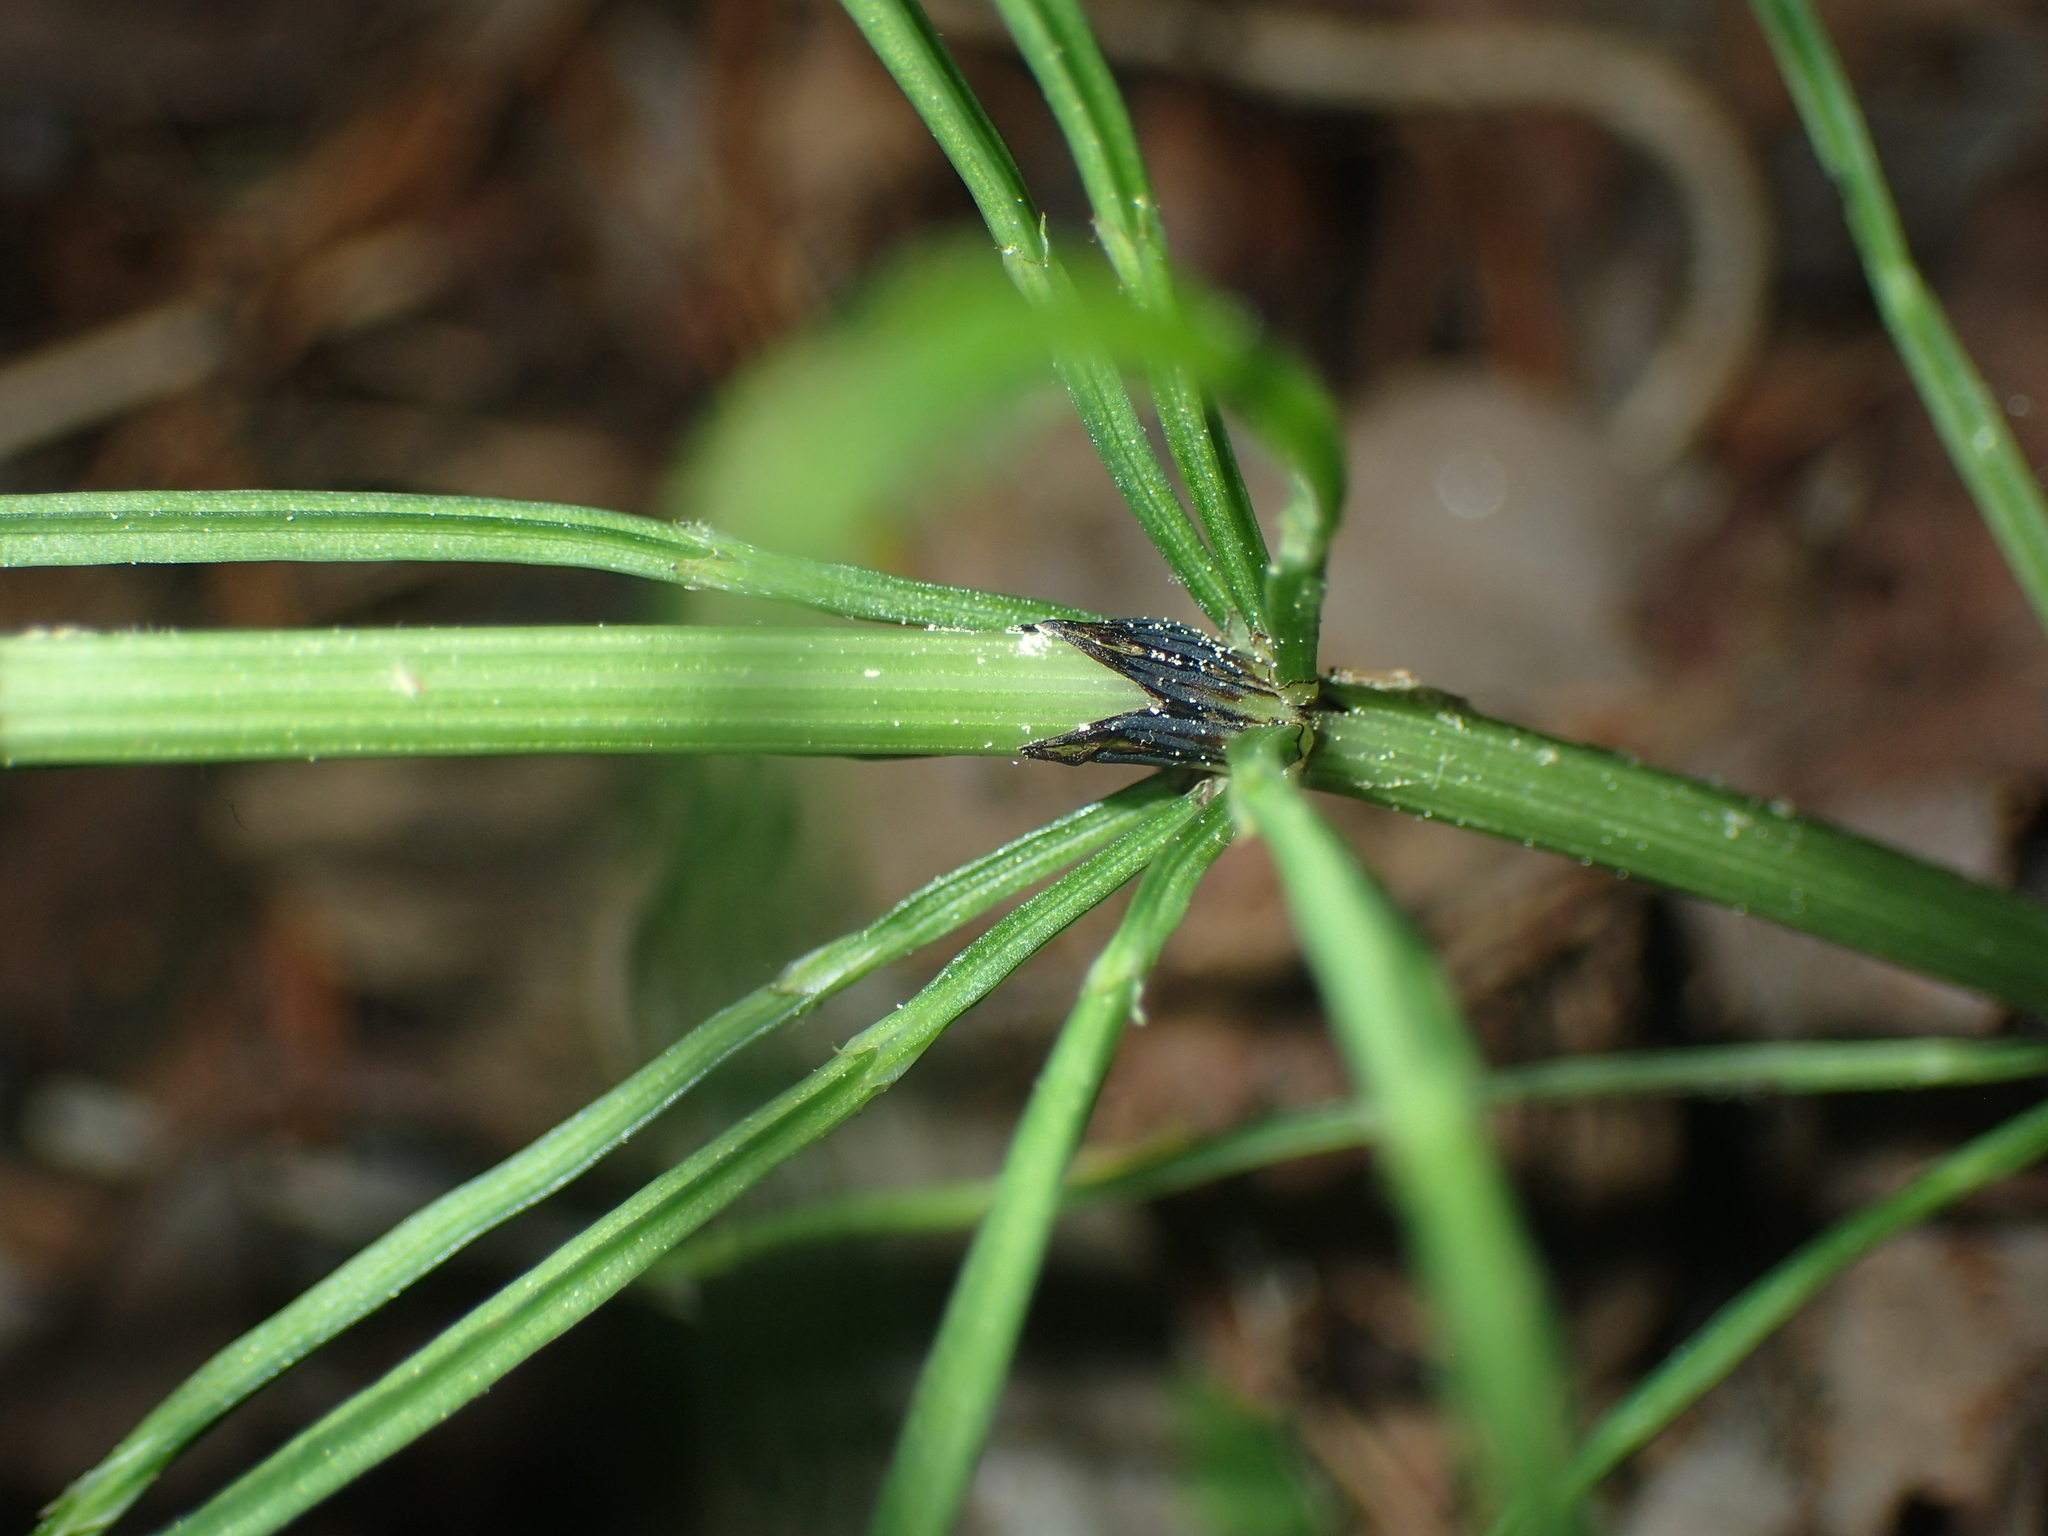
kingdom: Plantae
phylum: Tracheophyta
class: Polypodiopsida
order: Equisetales
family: Equisetaceae
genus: Equisetum
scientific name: Equisetum arvense
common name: Field horsetail
